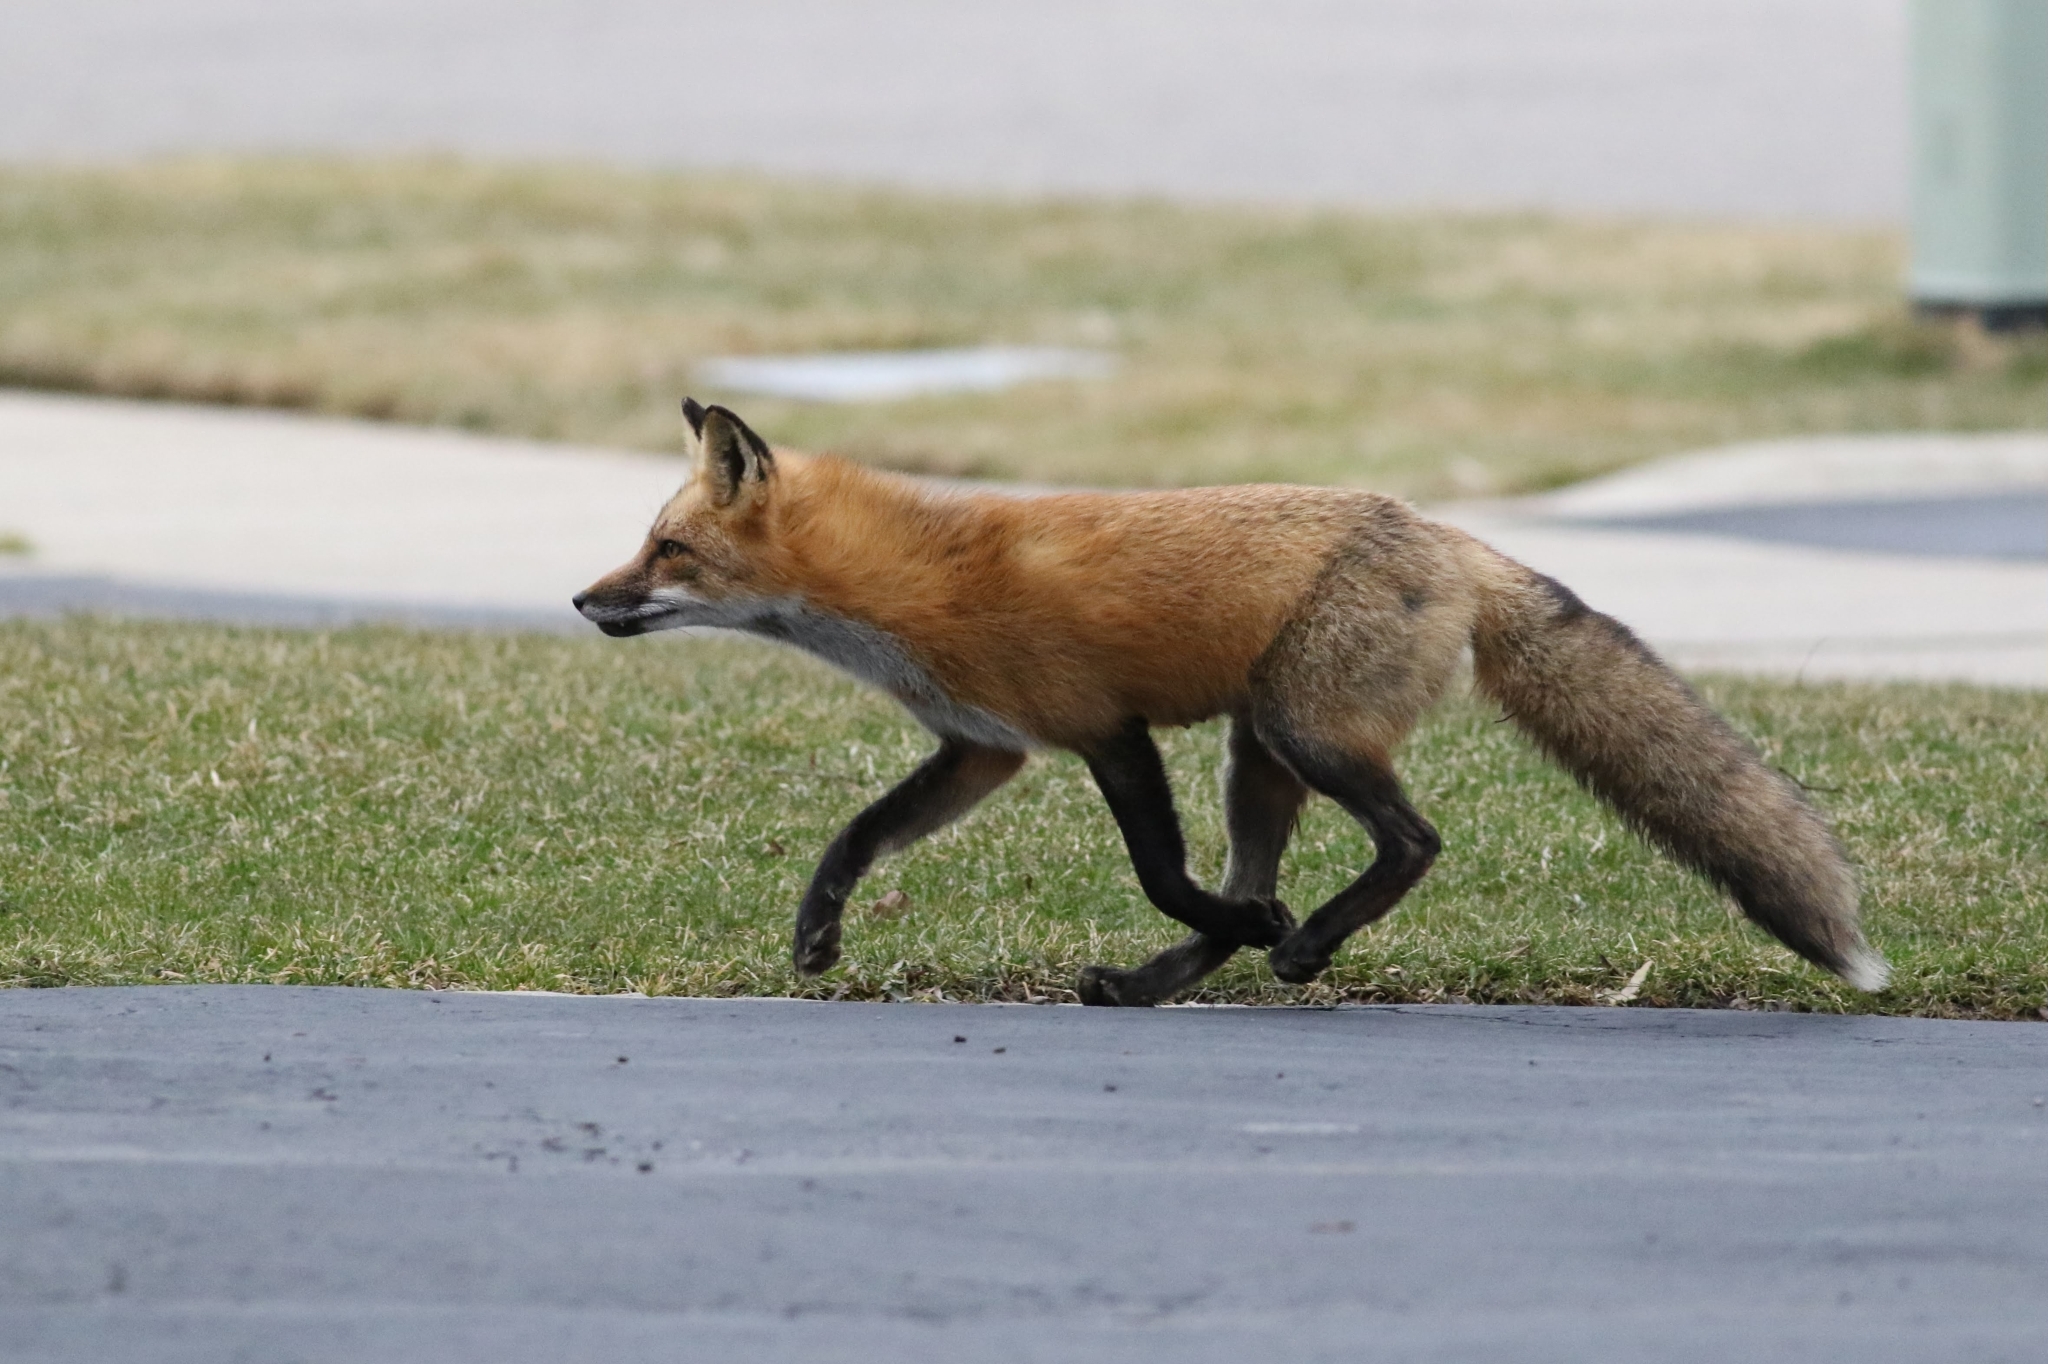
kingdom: Animalia
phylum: Chordata
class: Mammalia
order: Carnivora
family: Canidae
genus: Vulpes
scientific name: Vulpes vulpes
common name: Red fox
